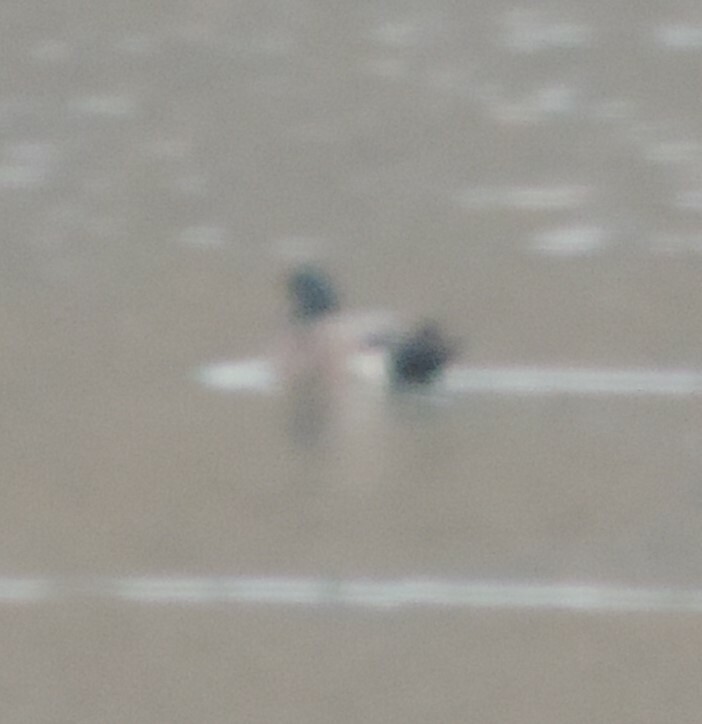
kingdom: Animalia
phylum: Chordata
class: Aves
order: Anseriformes
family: Anatidae
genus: Mareca
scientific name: Mareca americana
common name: American wigeon
